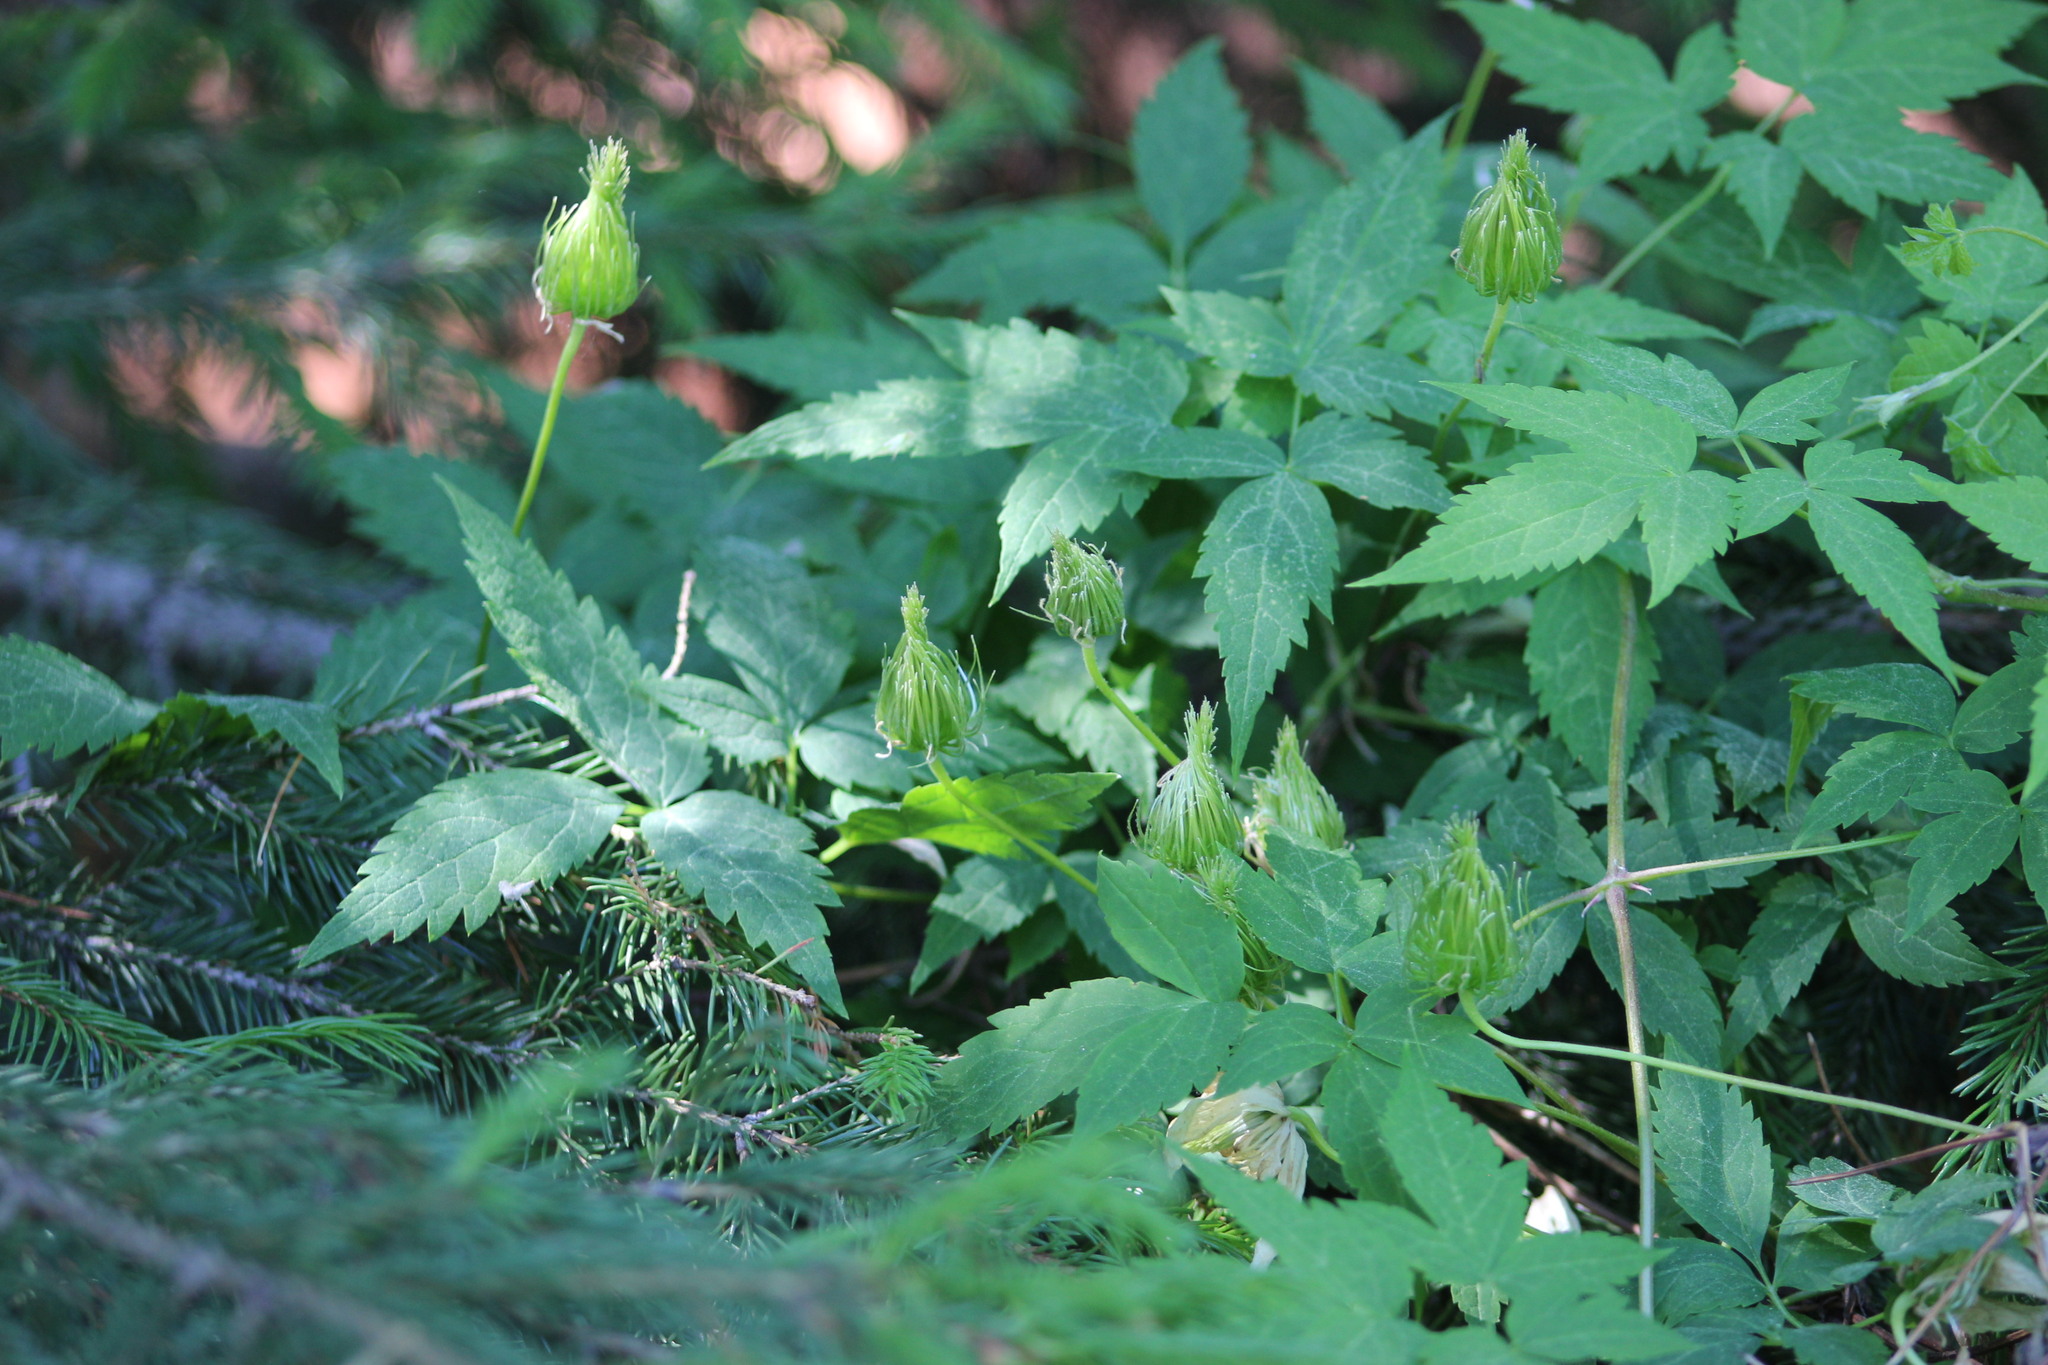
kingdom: Plantae
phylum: Tracheophyta
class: Magnoliopsida
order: Ranunculales
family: Ranunculaceae
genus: Clematis
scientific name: Clematis sibirica
